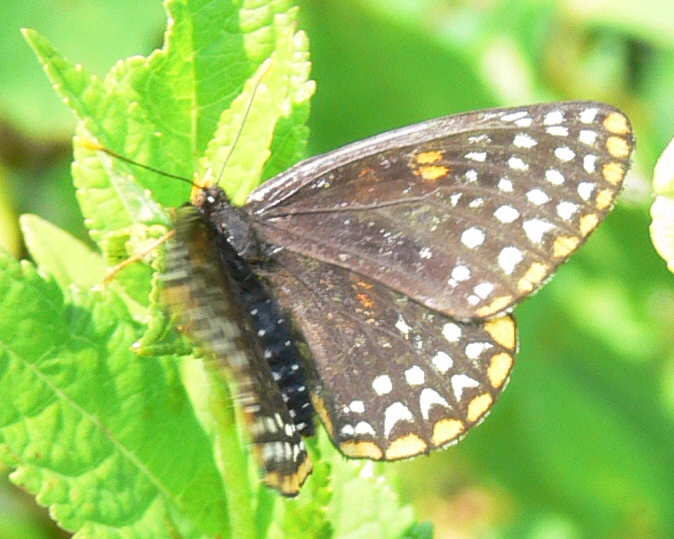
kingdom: Animalia
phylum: Arthropoda
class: Insecta
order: Lepidoptera
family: Nymphalidae
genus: Euphydryas
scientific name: Euphydryas phaeton
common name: Baltimore checkerspot
